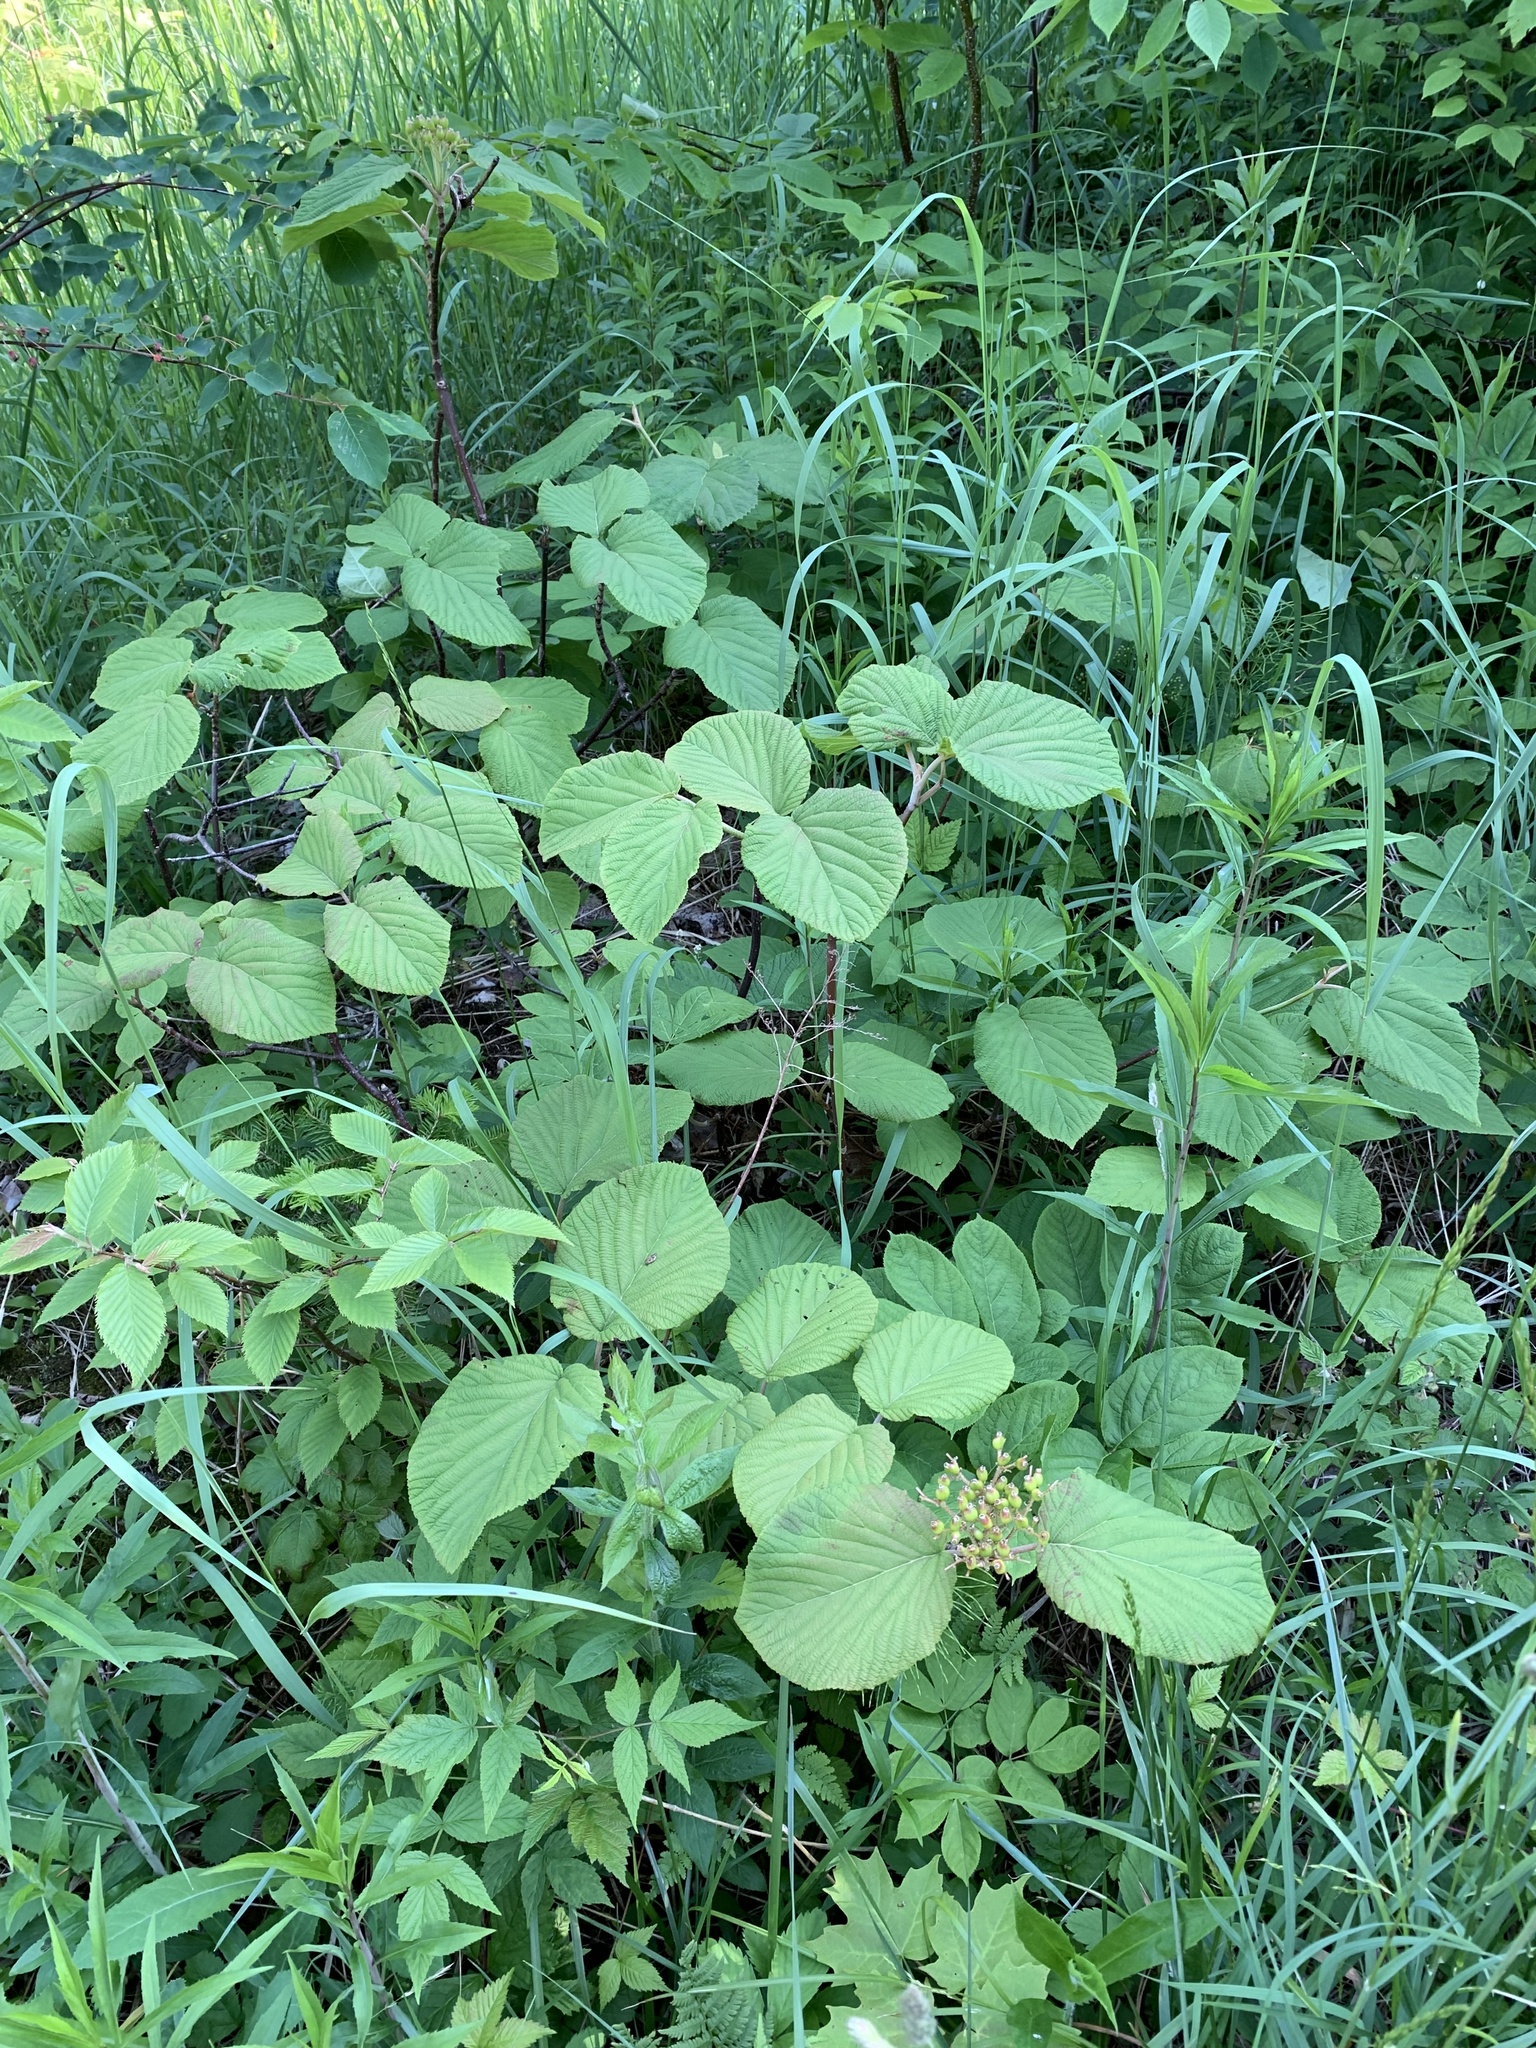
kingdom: Plantae
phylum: Tracheophyta
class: Magnoliopsida
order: Dipsacales
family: Viburnaceae
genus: Viburnum
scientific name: Viburnum lantanoides
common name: Hobblebush
